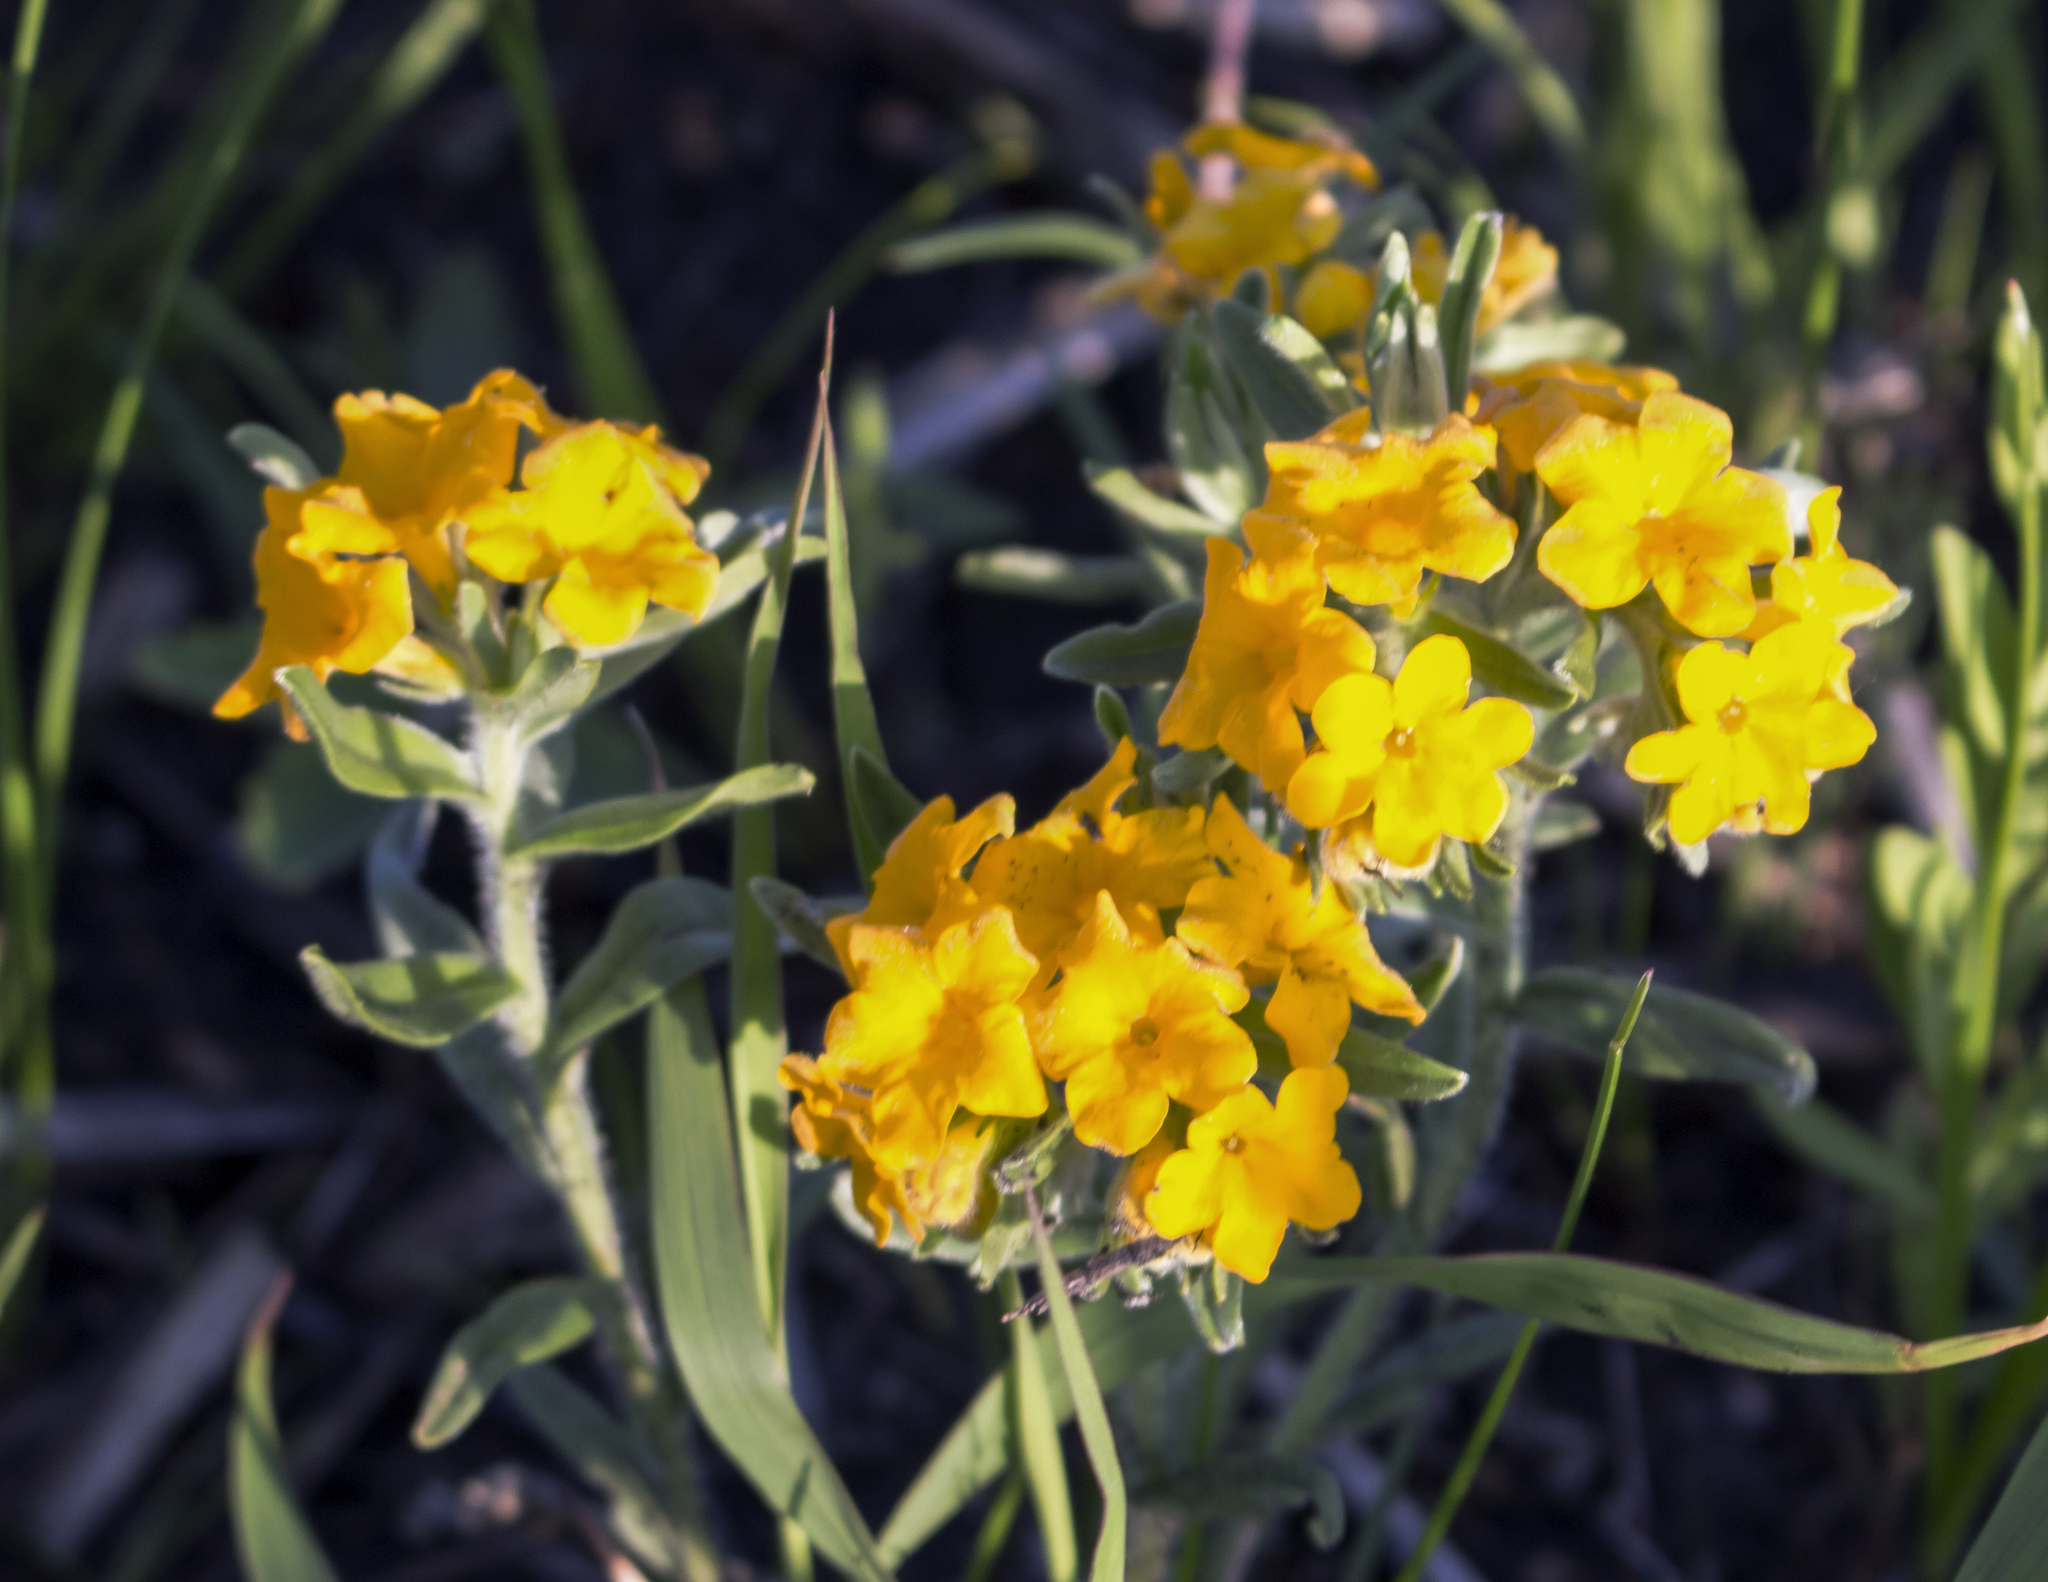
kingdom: Plantae
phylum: Tracheophyta
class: Magnoliopsida
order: Boraginales
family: Boraginaceae
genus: Lithospermum
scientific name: Lithospermum canescens
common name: Hoary puccoon
